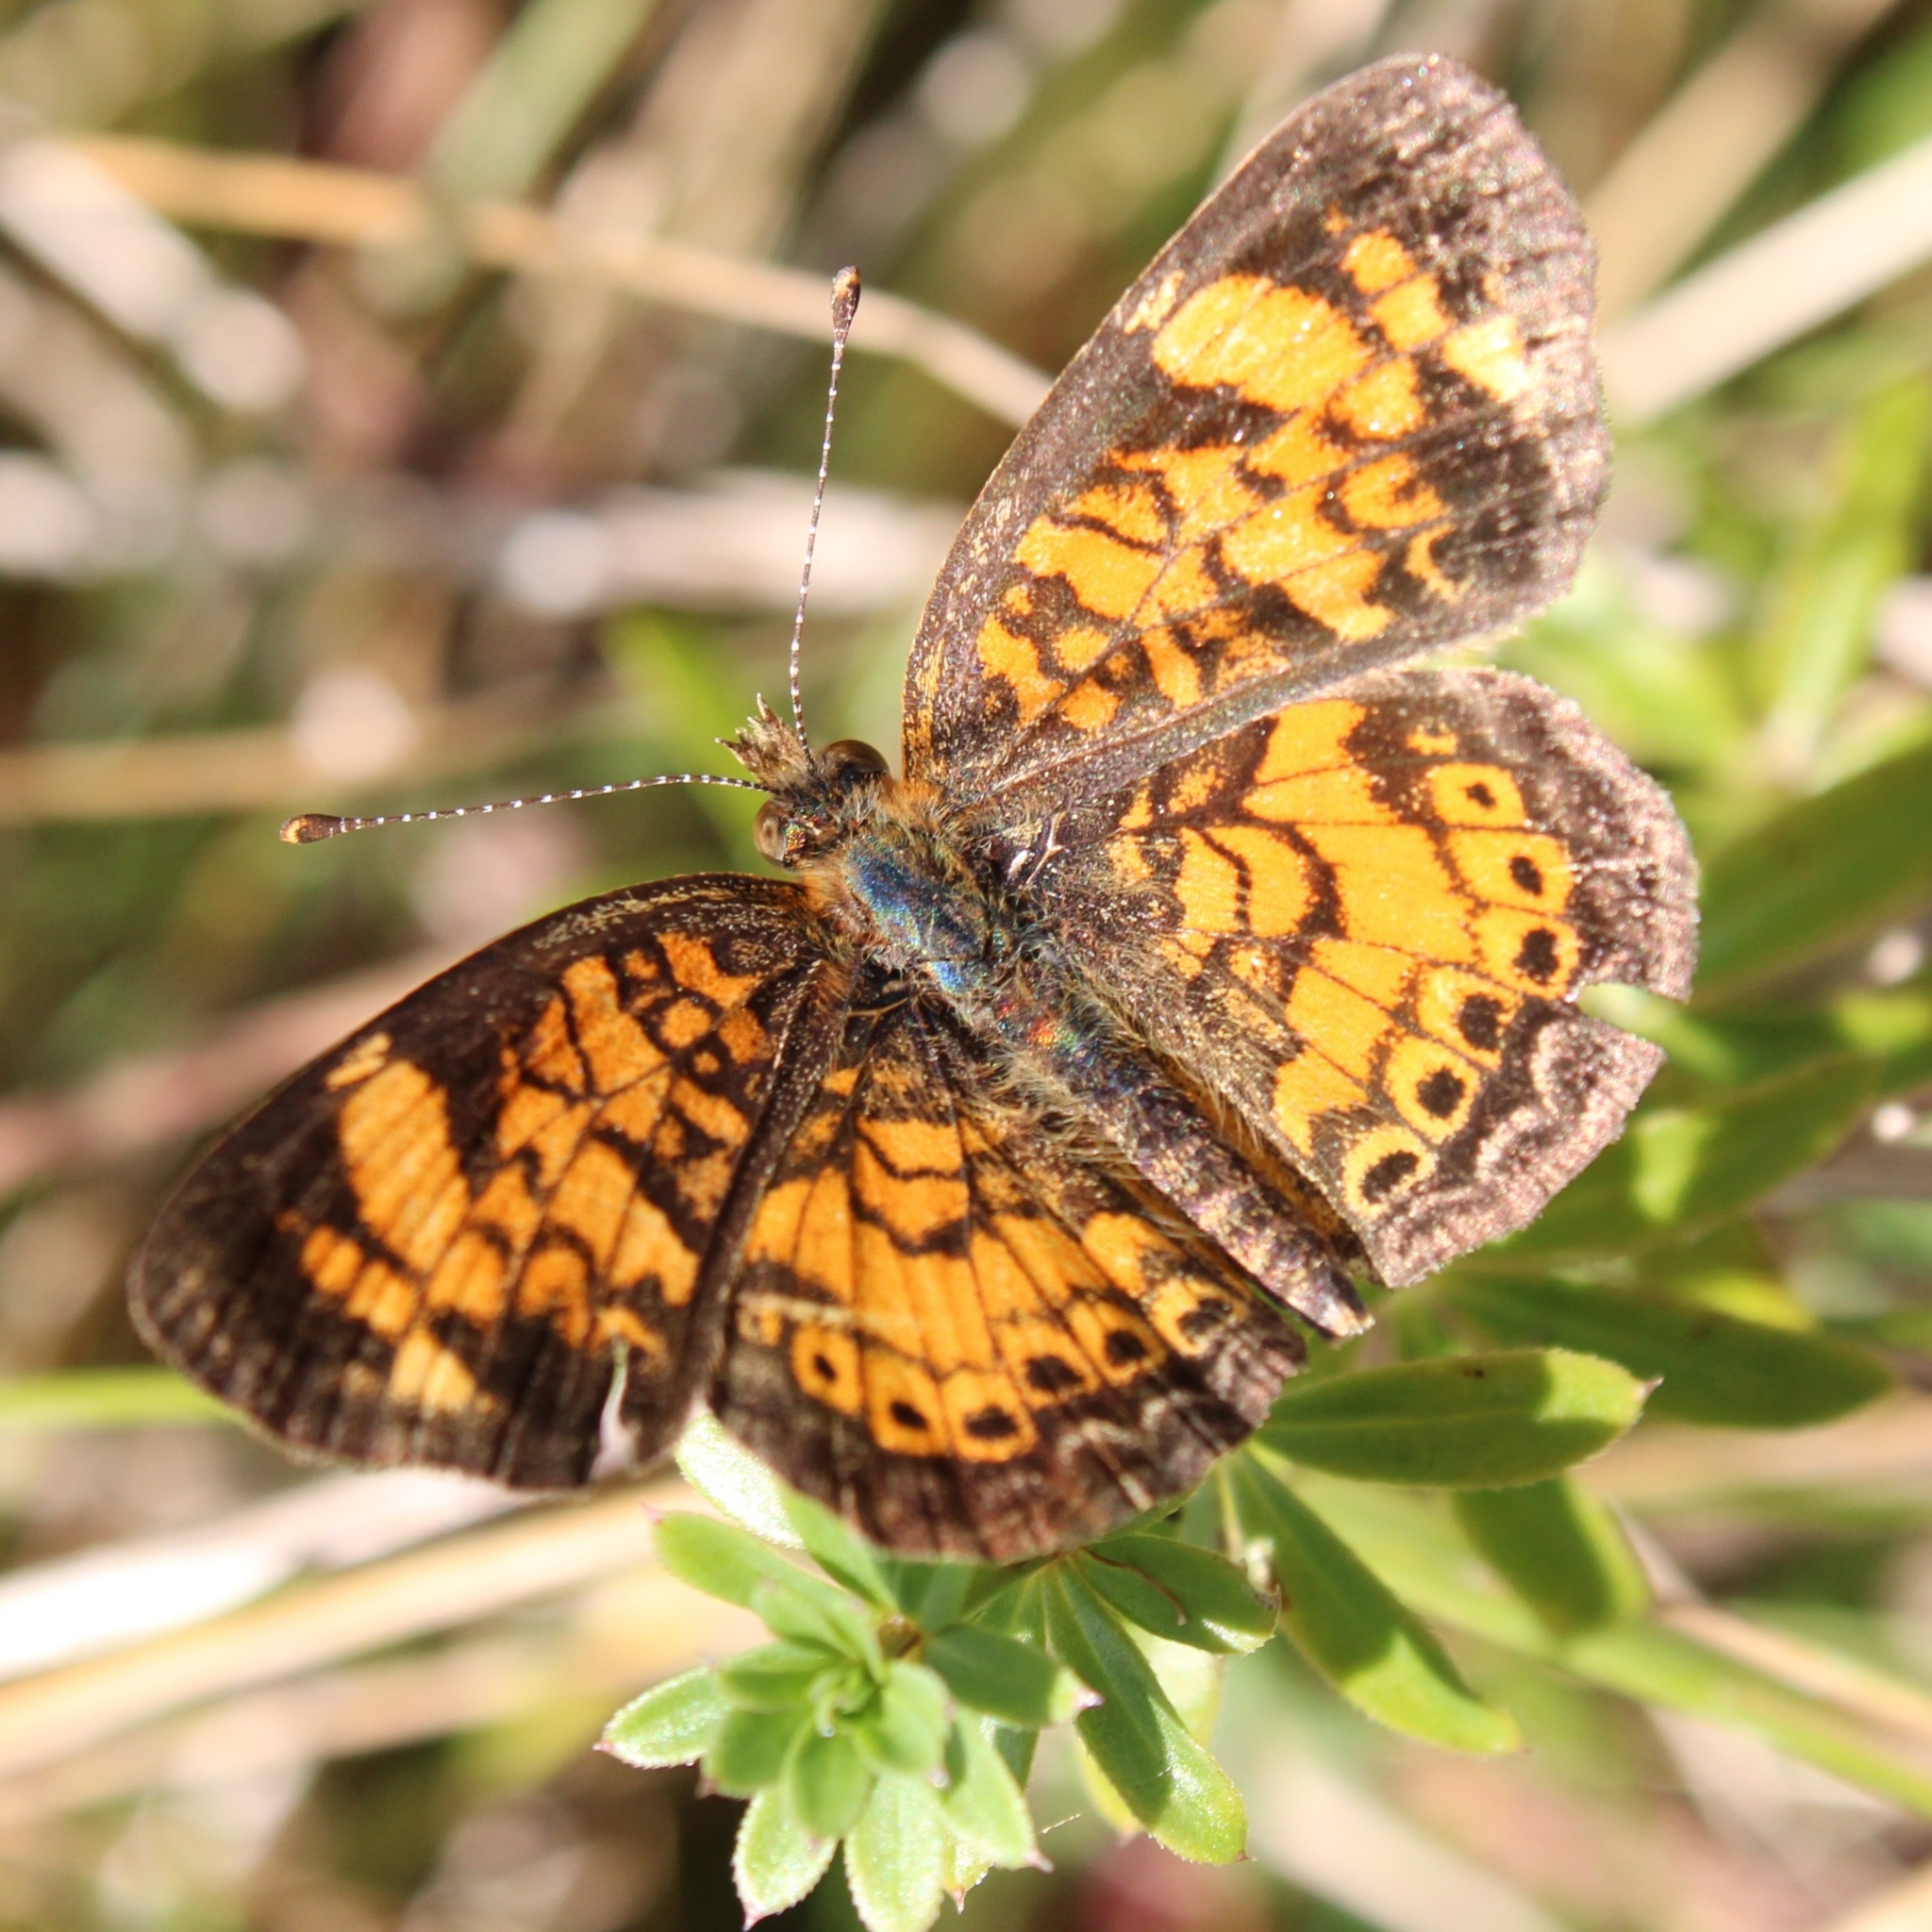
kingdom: Animalia
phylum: Arthropoda
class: Insecta
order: Lepidoptera
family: Nymphalidae
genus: Phyciodes
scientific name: Phyciodes tharos
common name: Pearl crescent
